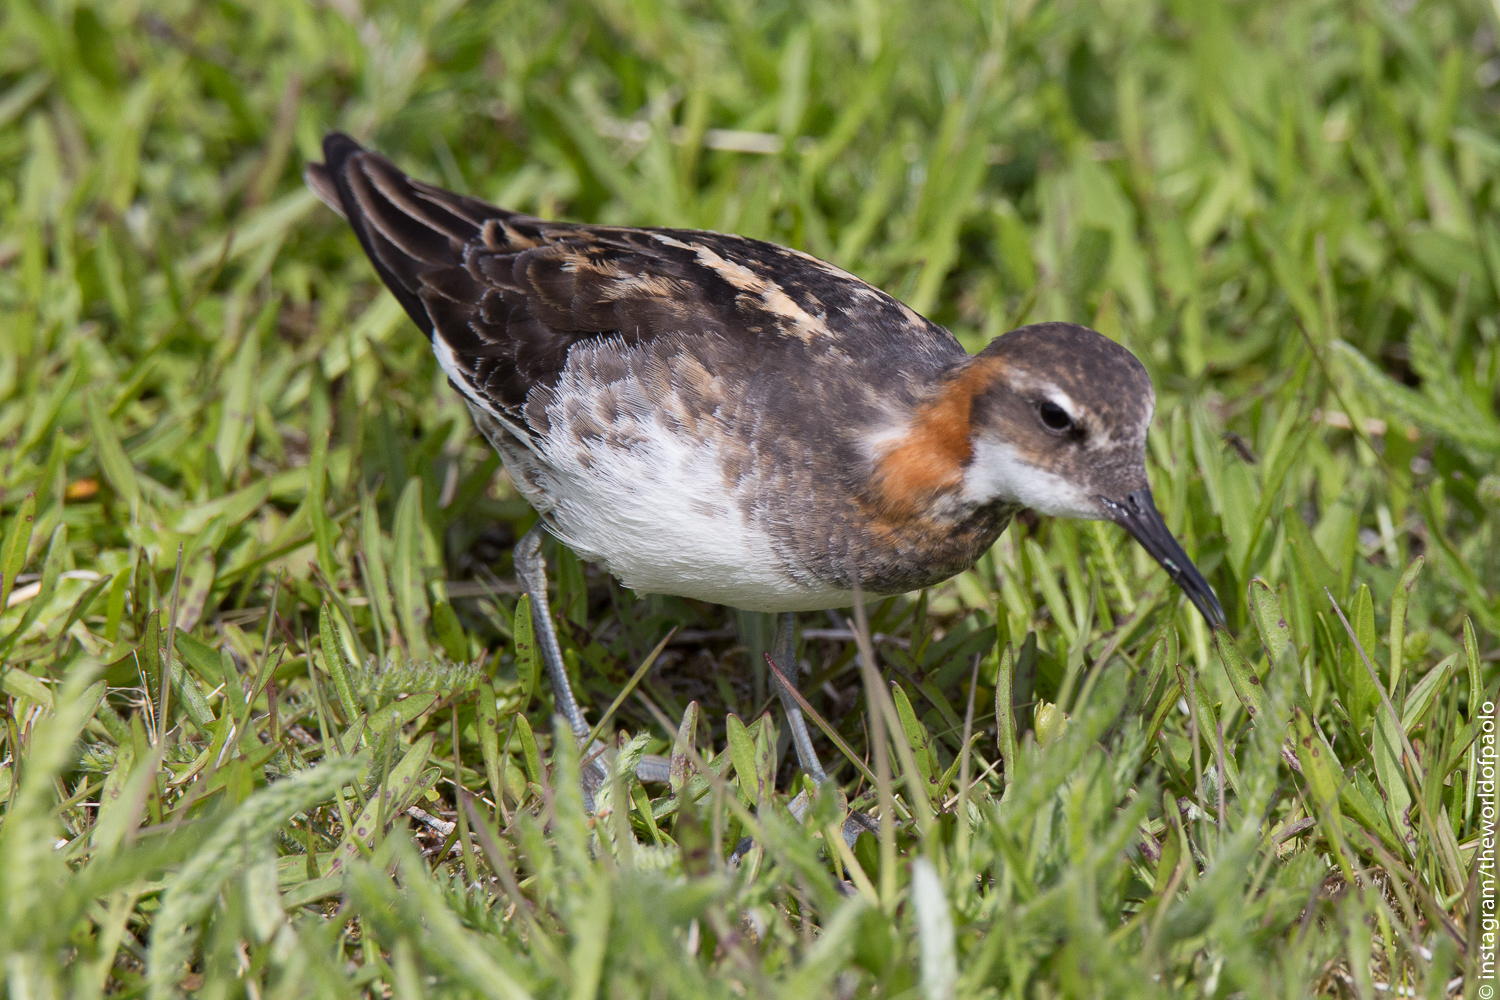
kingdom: Animalia
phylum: Chordata
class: Aves
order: Charadriiformes
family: Scolopacidae
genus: Phalaropus
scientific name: Phalaropus lobatus
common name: Red-necked phalarope
